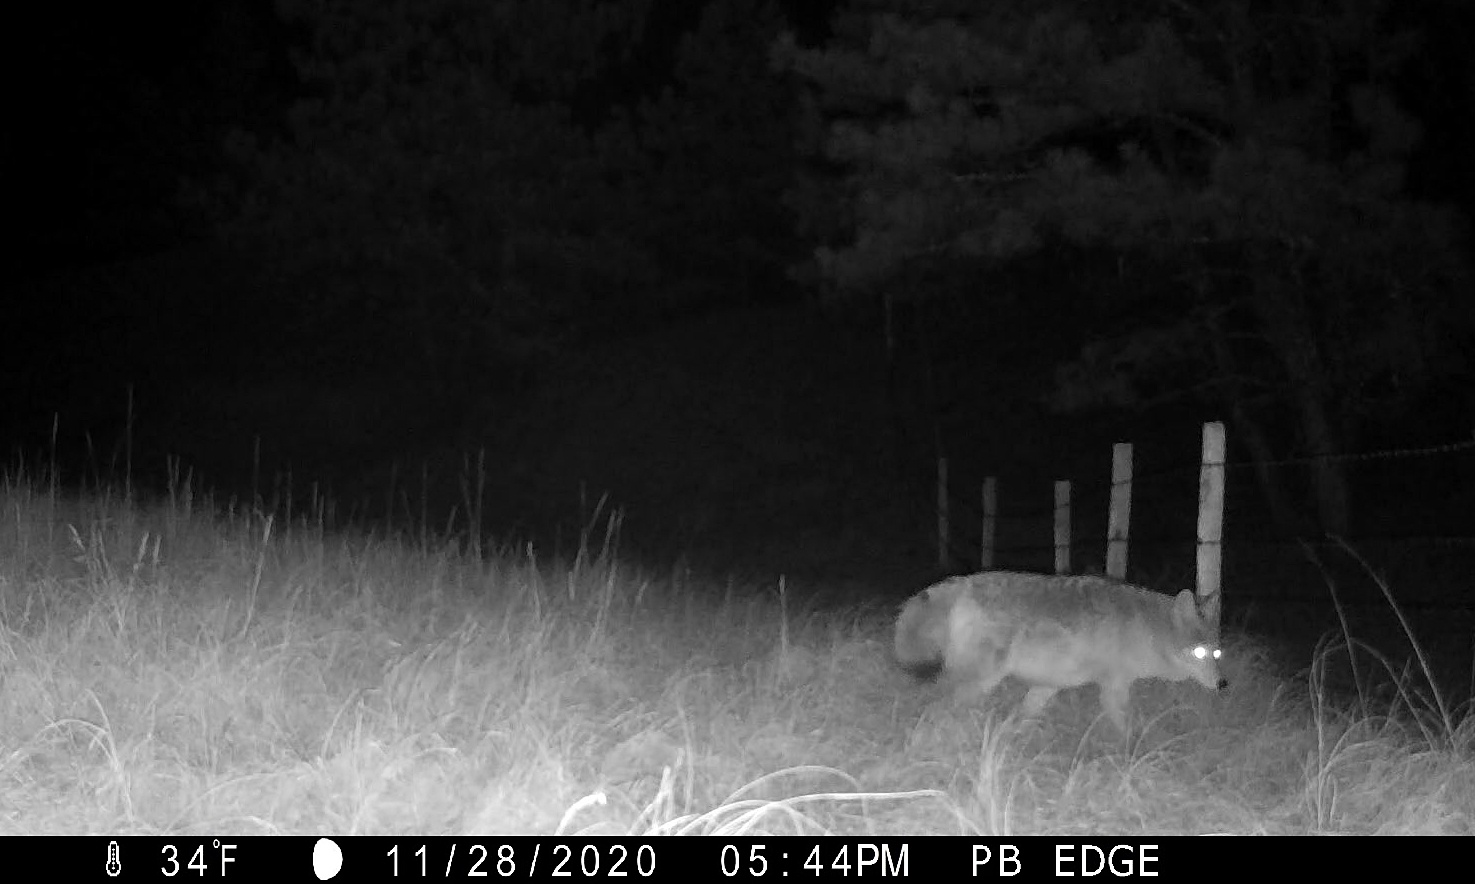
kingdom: Animalia
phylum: Chordata
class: Mammalia
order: Carnivora
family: Canidae
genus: Canis
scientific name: Canis latrans
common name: Coyote
